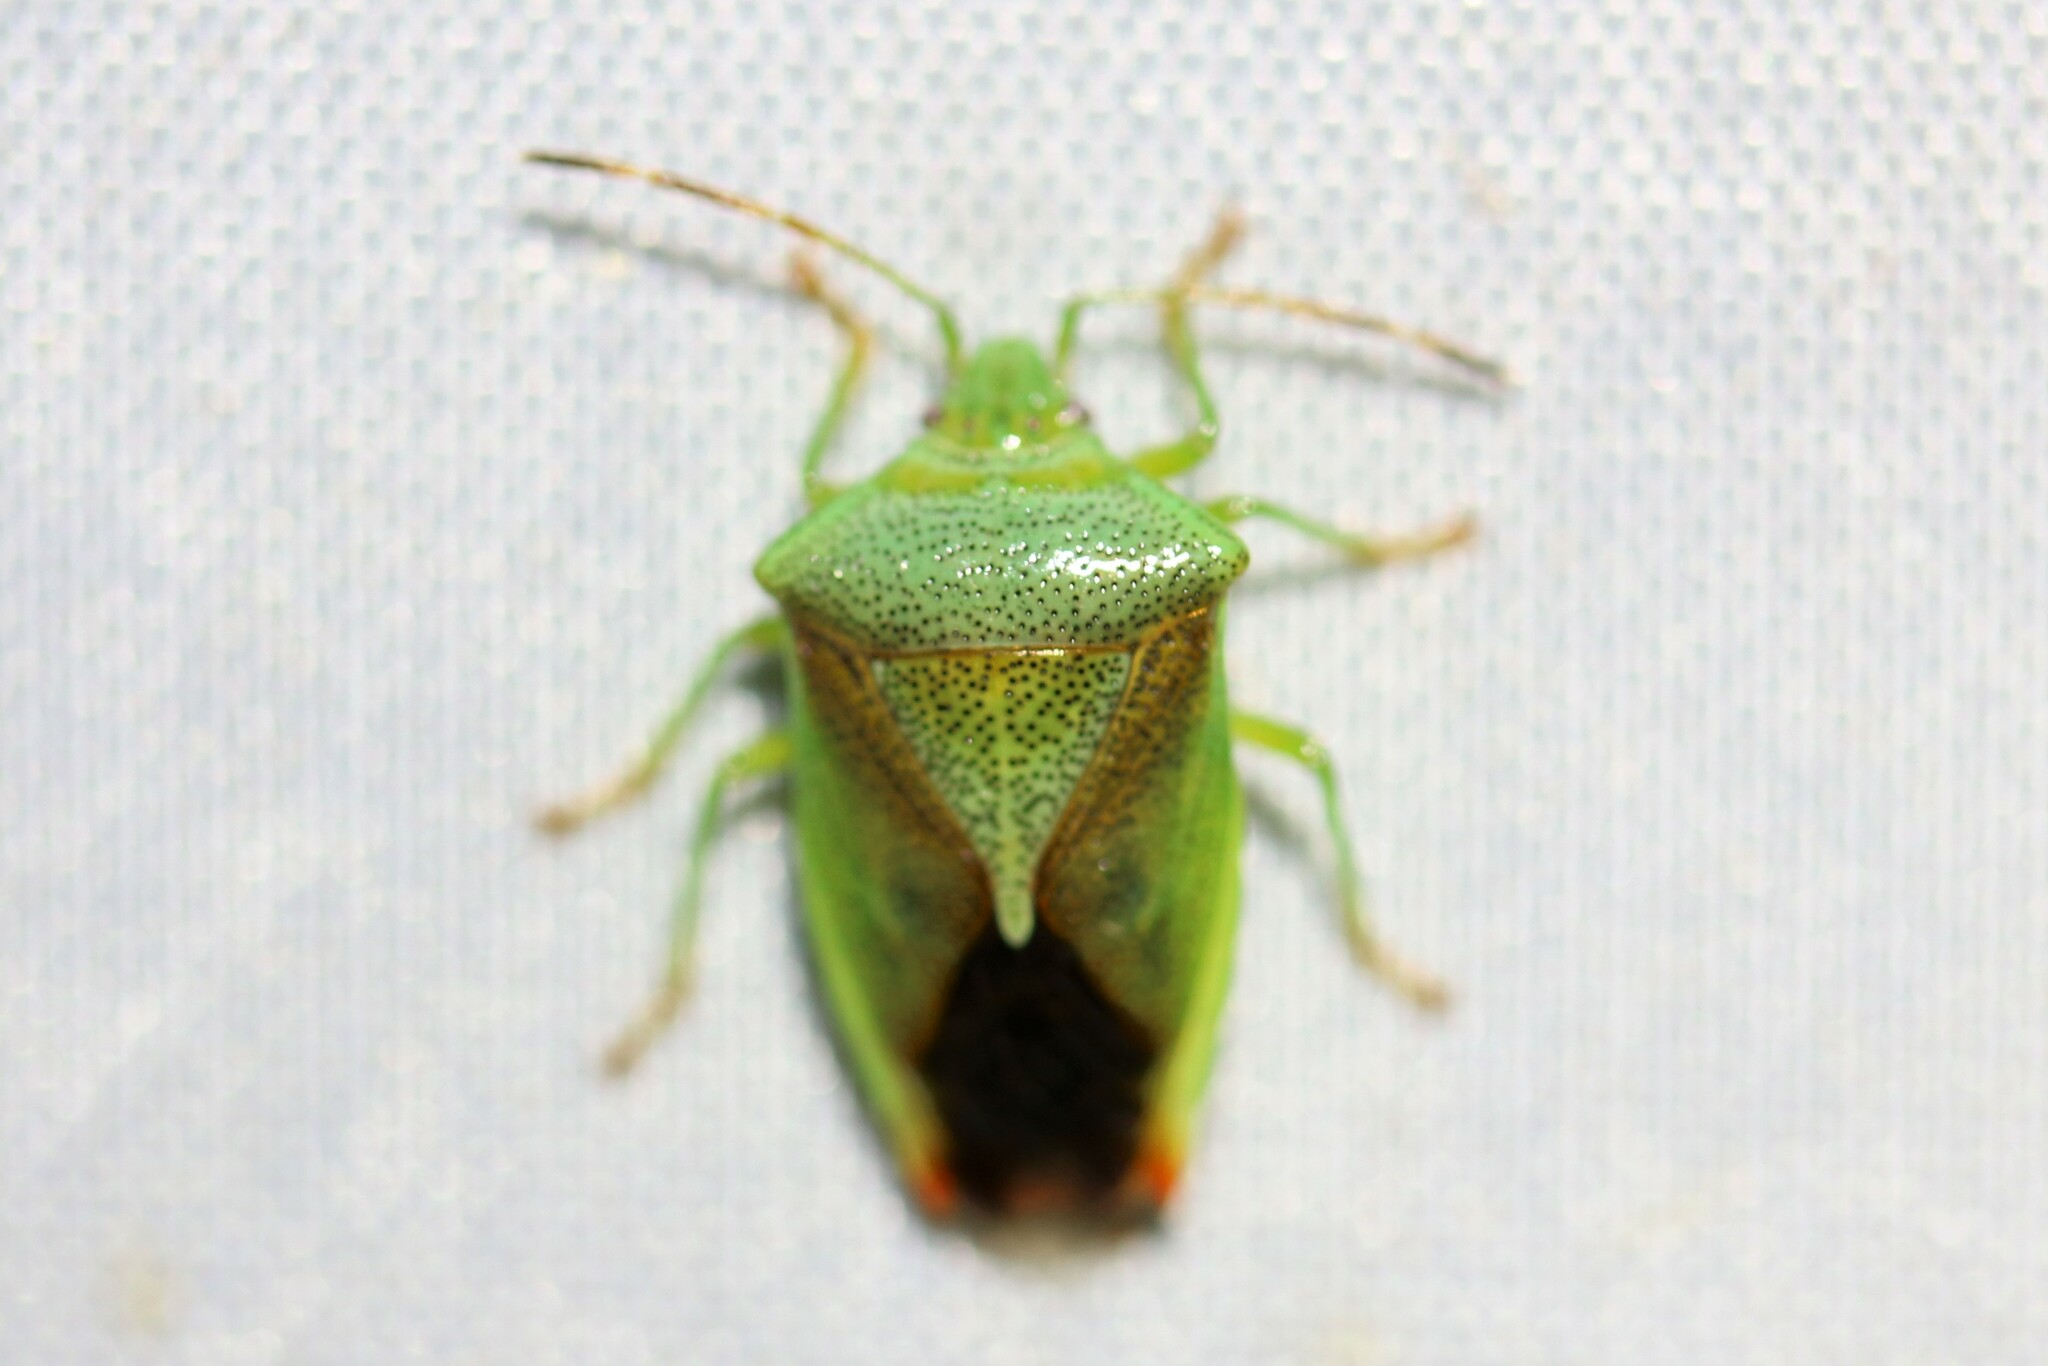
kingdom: Animalia
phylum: Arthropoda
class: Insecta
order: Hemiptera
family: Acanthosomatidae
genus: Elasmostethus
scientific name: Elasmostethus minor
